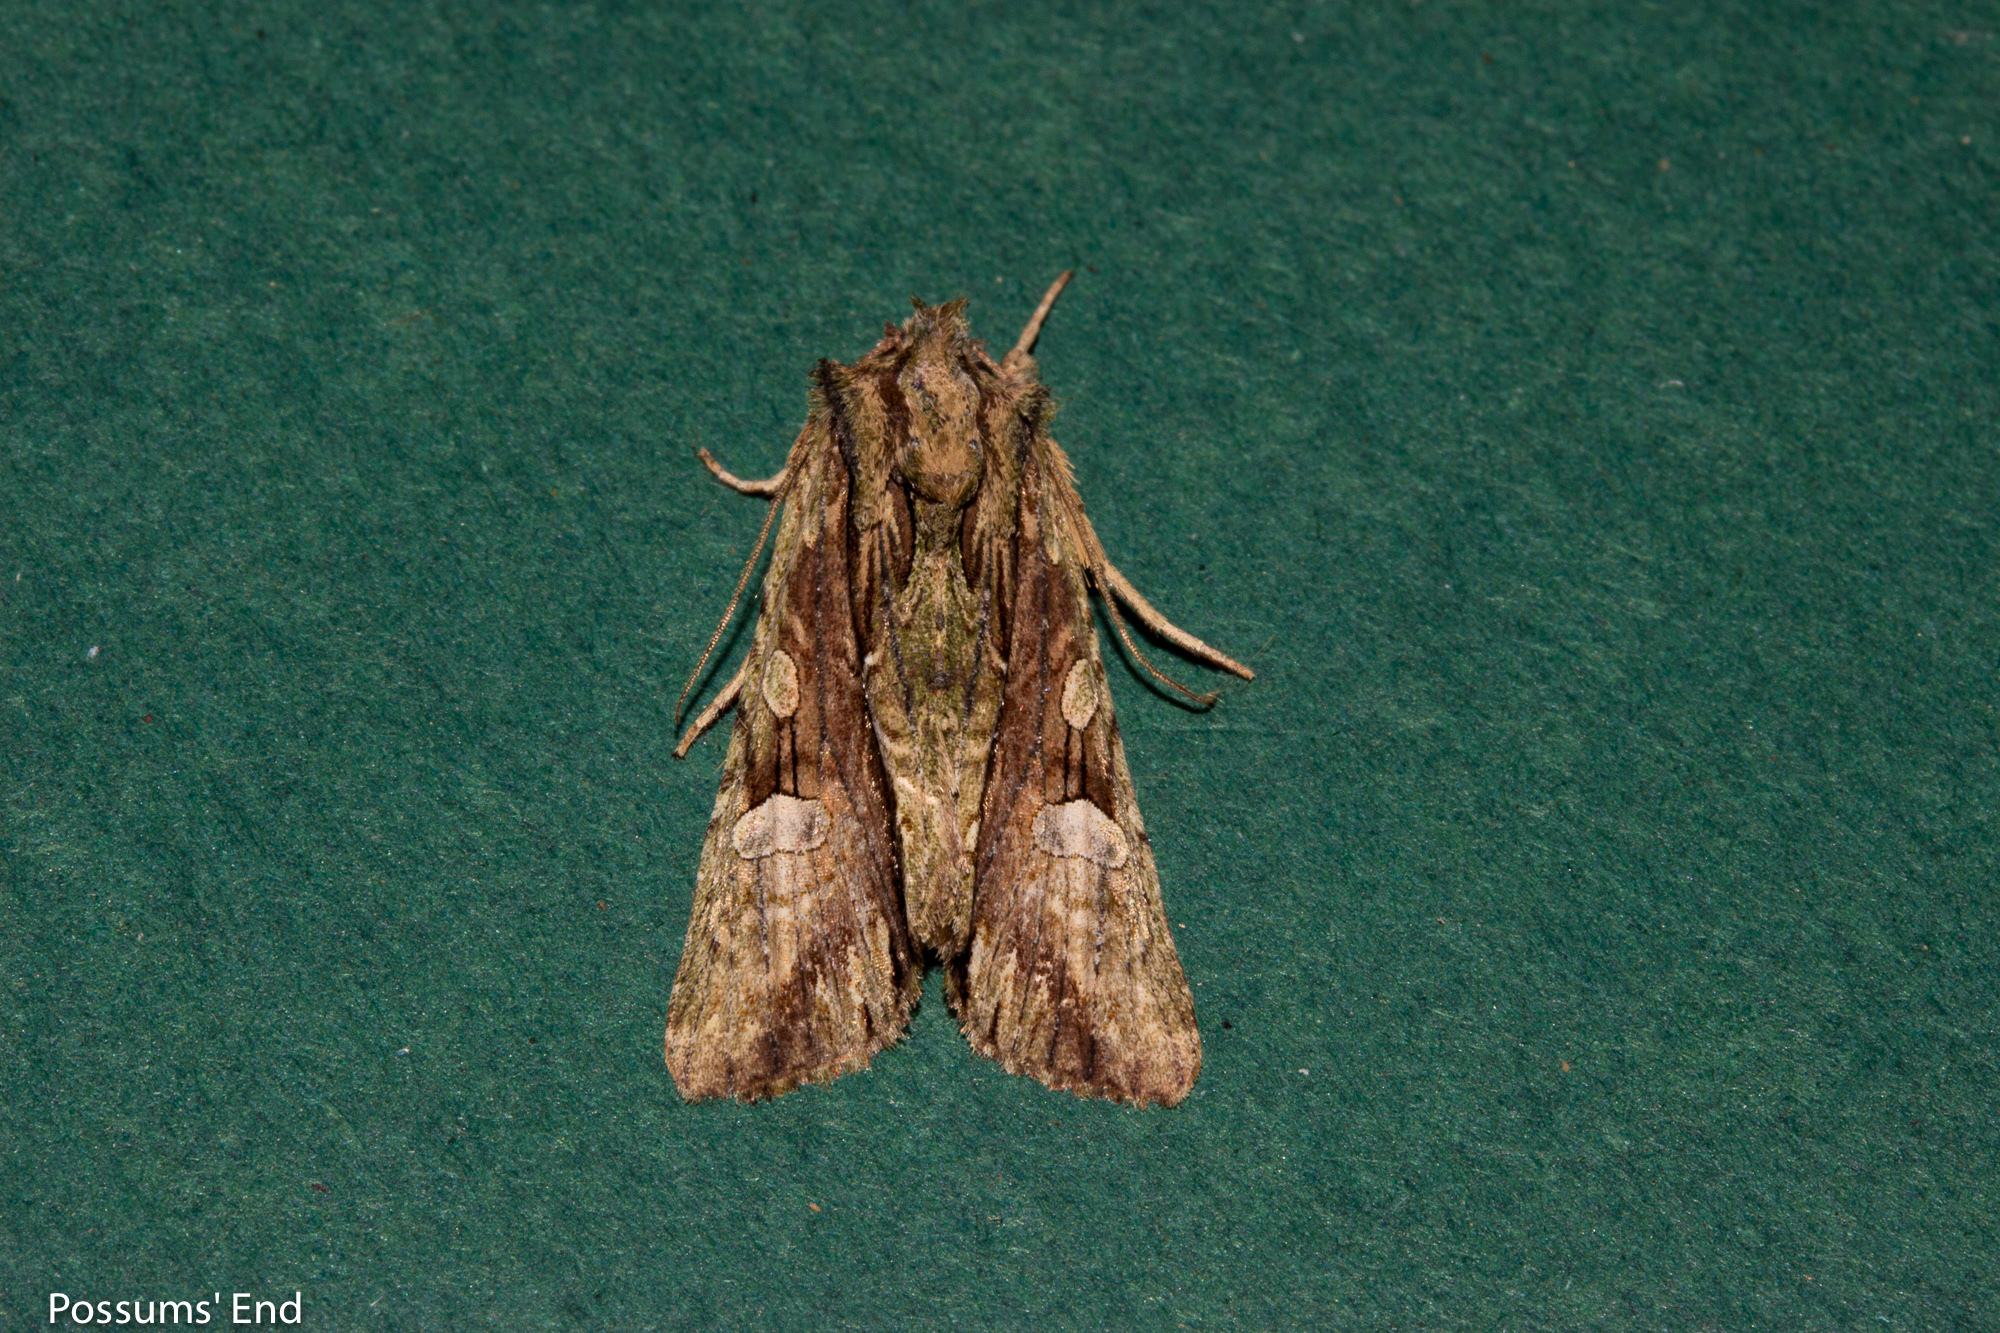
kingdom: Animalia
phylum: Arthropoda
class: Insecta
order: Lepidoptera
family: Noctuidae
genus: Meterana
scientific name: Meterana decorata
